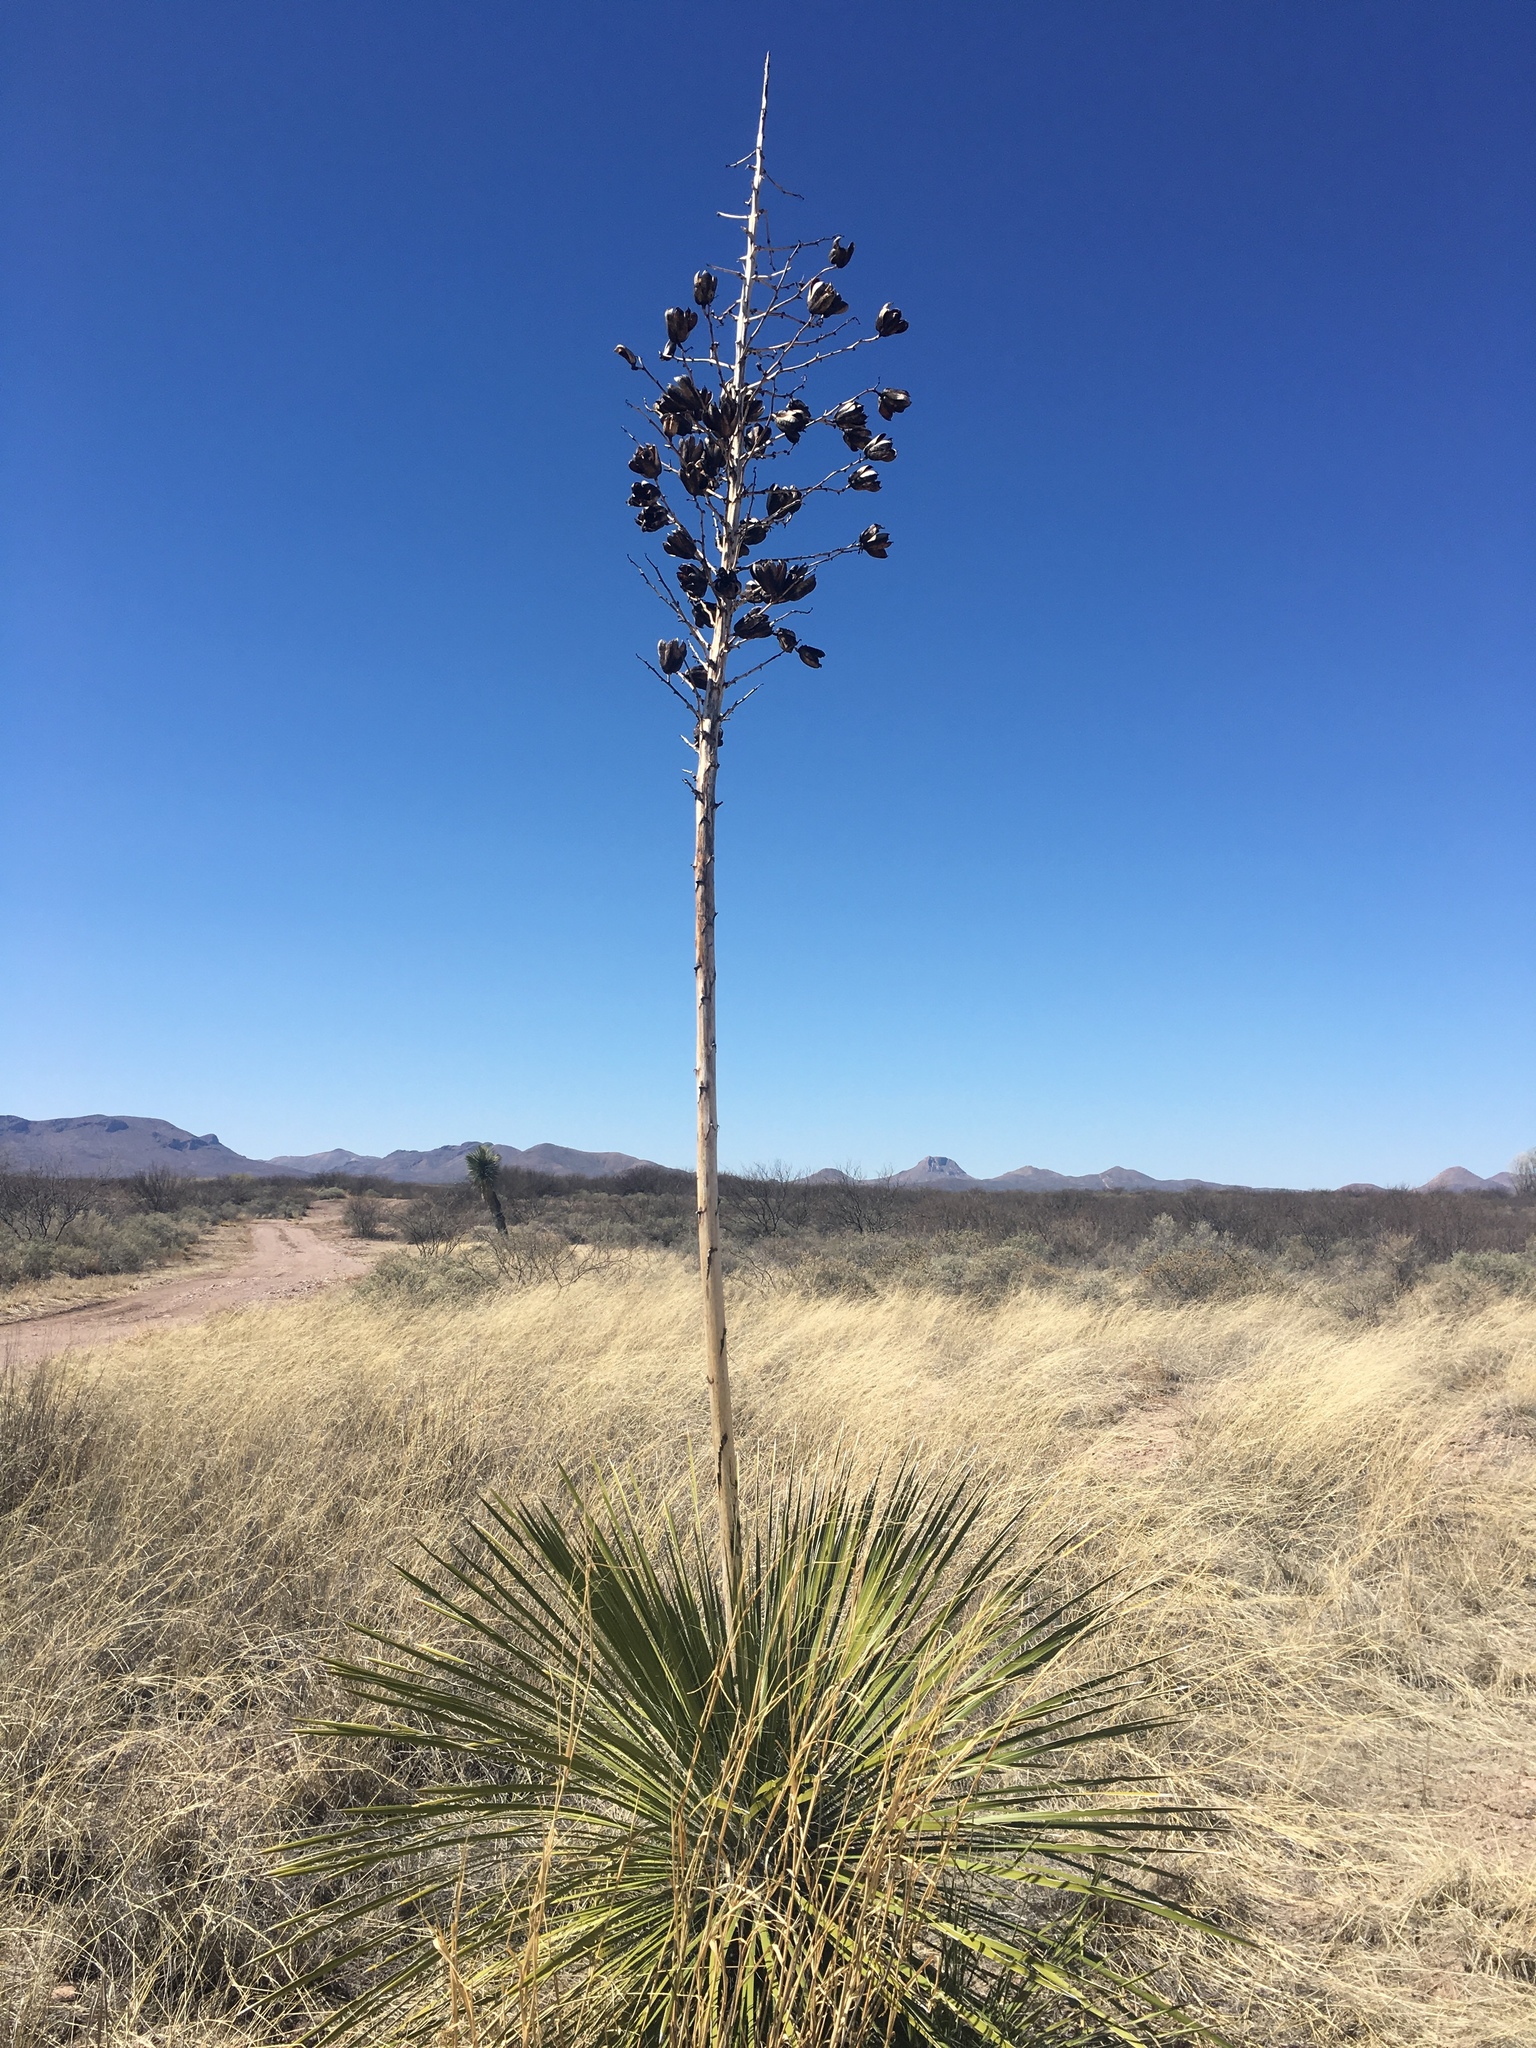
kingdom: Plantae
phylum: Tracheophyta
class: Liliopsida
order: Asparagales
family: Asparagaceae
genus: Yucca
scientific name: Yucca elata
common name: Palmella
